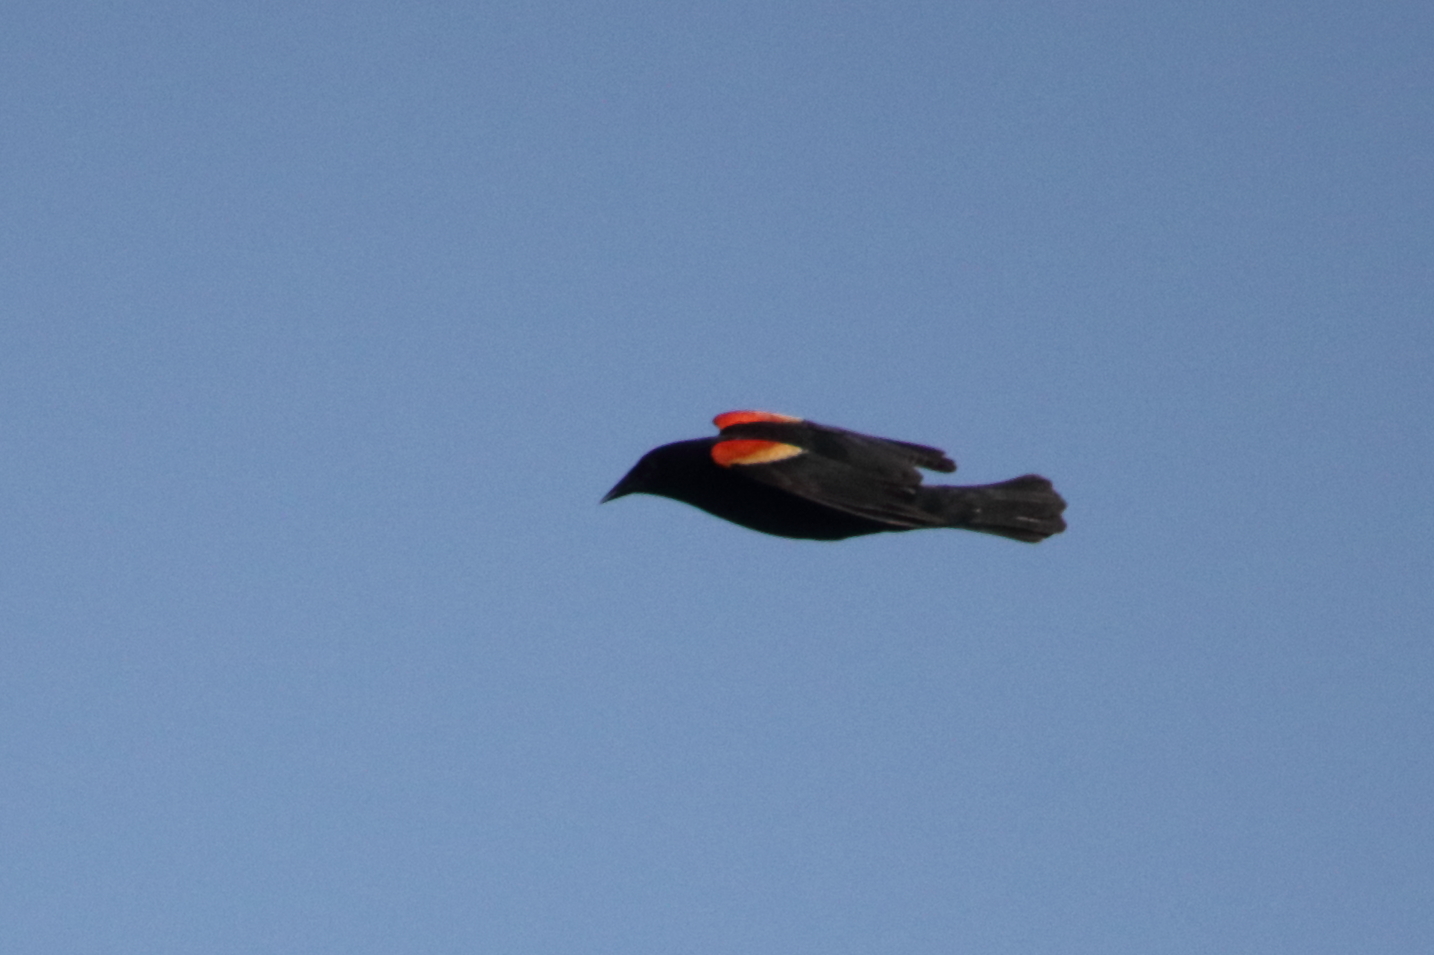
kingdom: Animalia
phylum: Chordata
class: Aves
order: Passeriformes
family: Icteridae
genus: Agelaius
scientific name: Agelaius phoeniceus
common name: Red-winged blackbird
